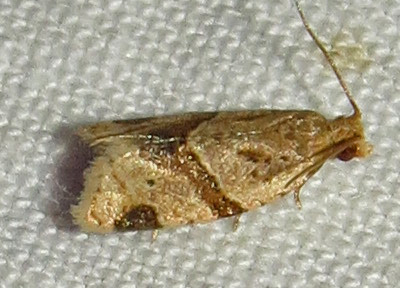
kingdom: Animalia
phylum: Arthropoda
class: Insecta
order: Lepidoptera
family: Tortricidae
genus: Clepsis
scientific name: Clepsis peritana
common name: Garden tortrix
